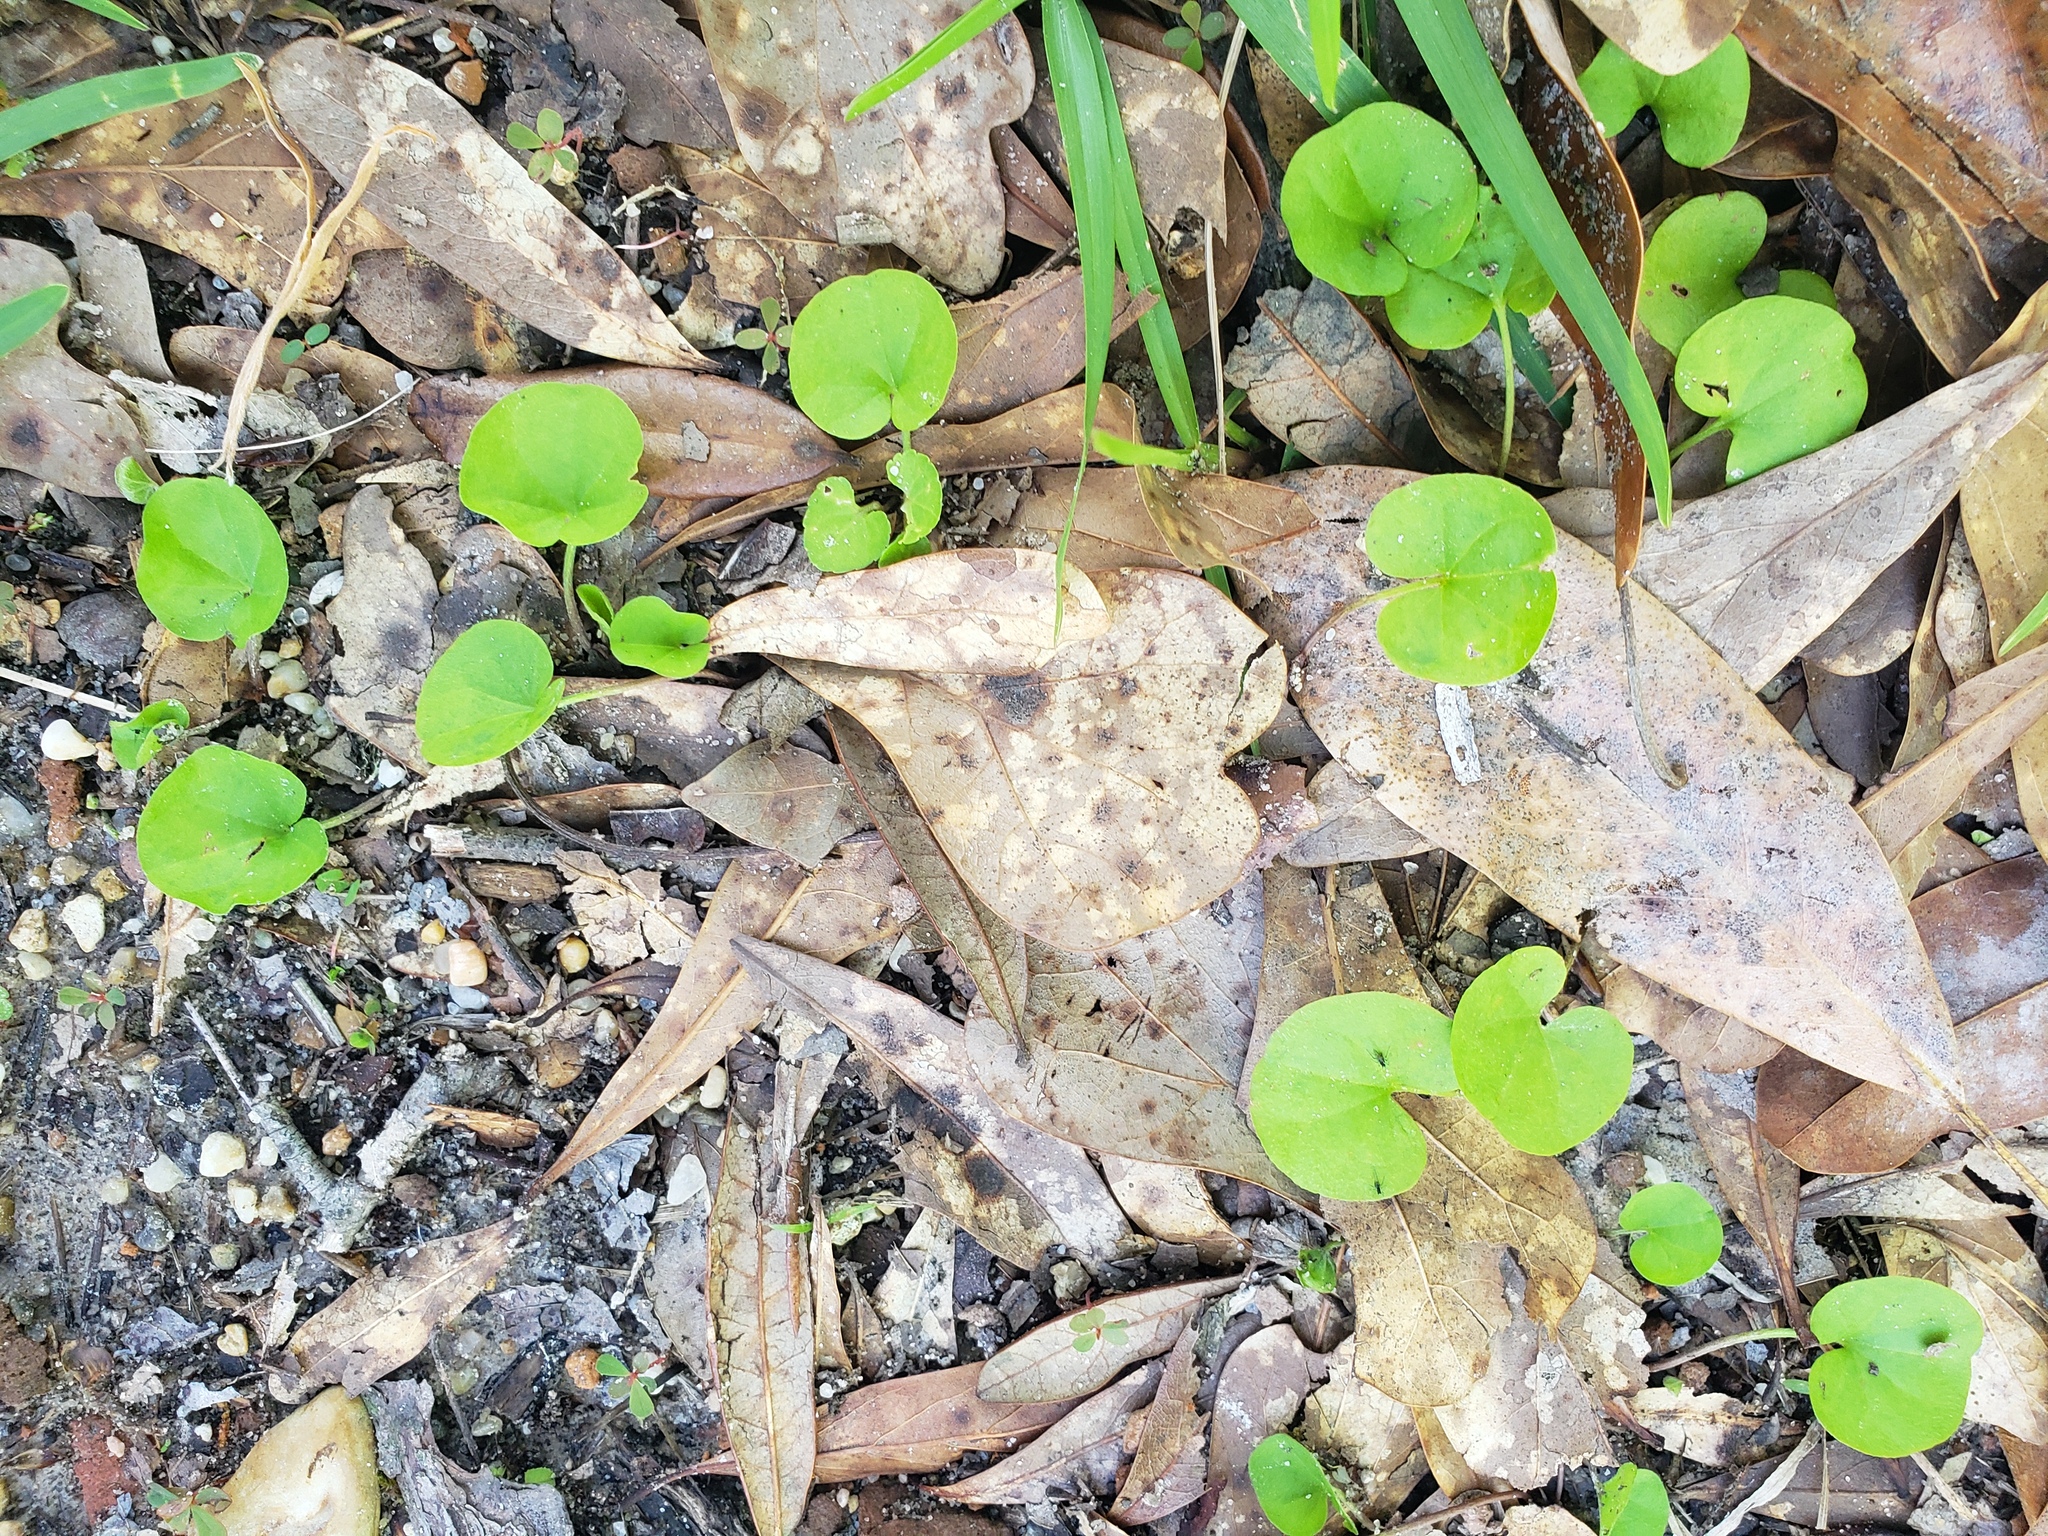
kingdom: Plantae
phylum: Tracheophyta
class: Magnoliopsida
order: Solanales
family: Convolvulaceae
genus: Dichondra
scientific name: Dichondra carolinensis
